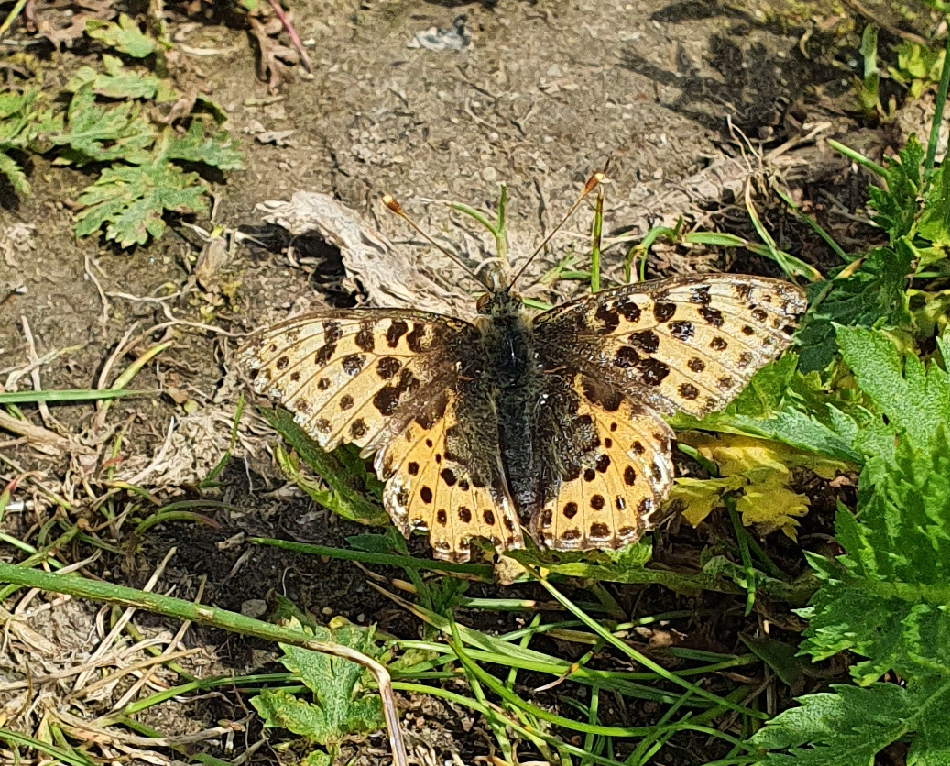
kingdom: Animalia
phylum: Arthropoda
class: Insecta
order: Lepidoptera
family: Nymphalidae
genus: Issoria
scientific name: Issoria lathonia
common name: Queen of spain fritillary
